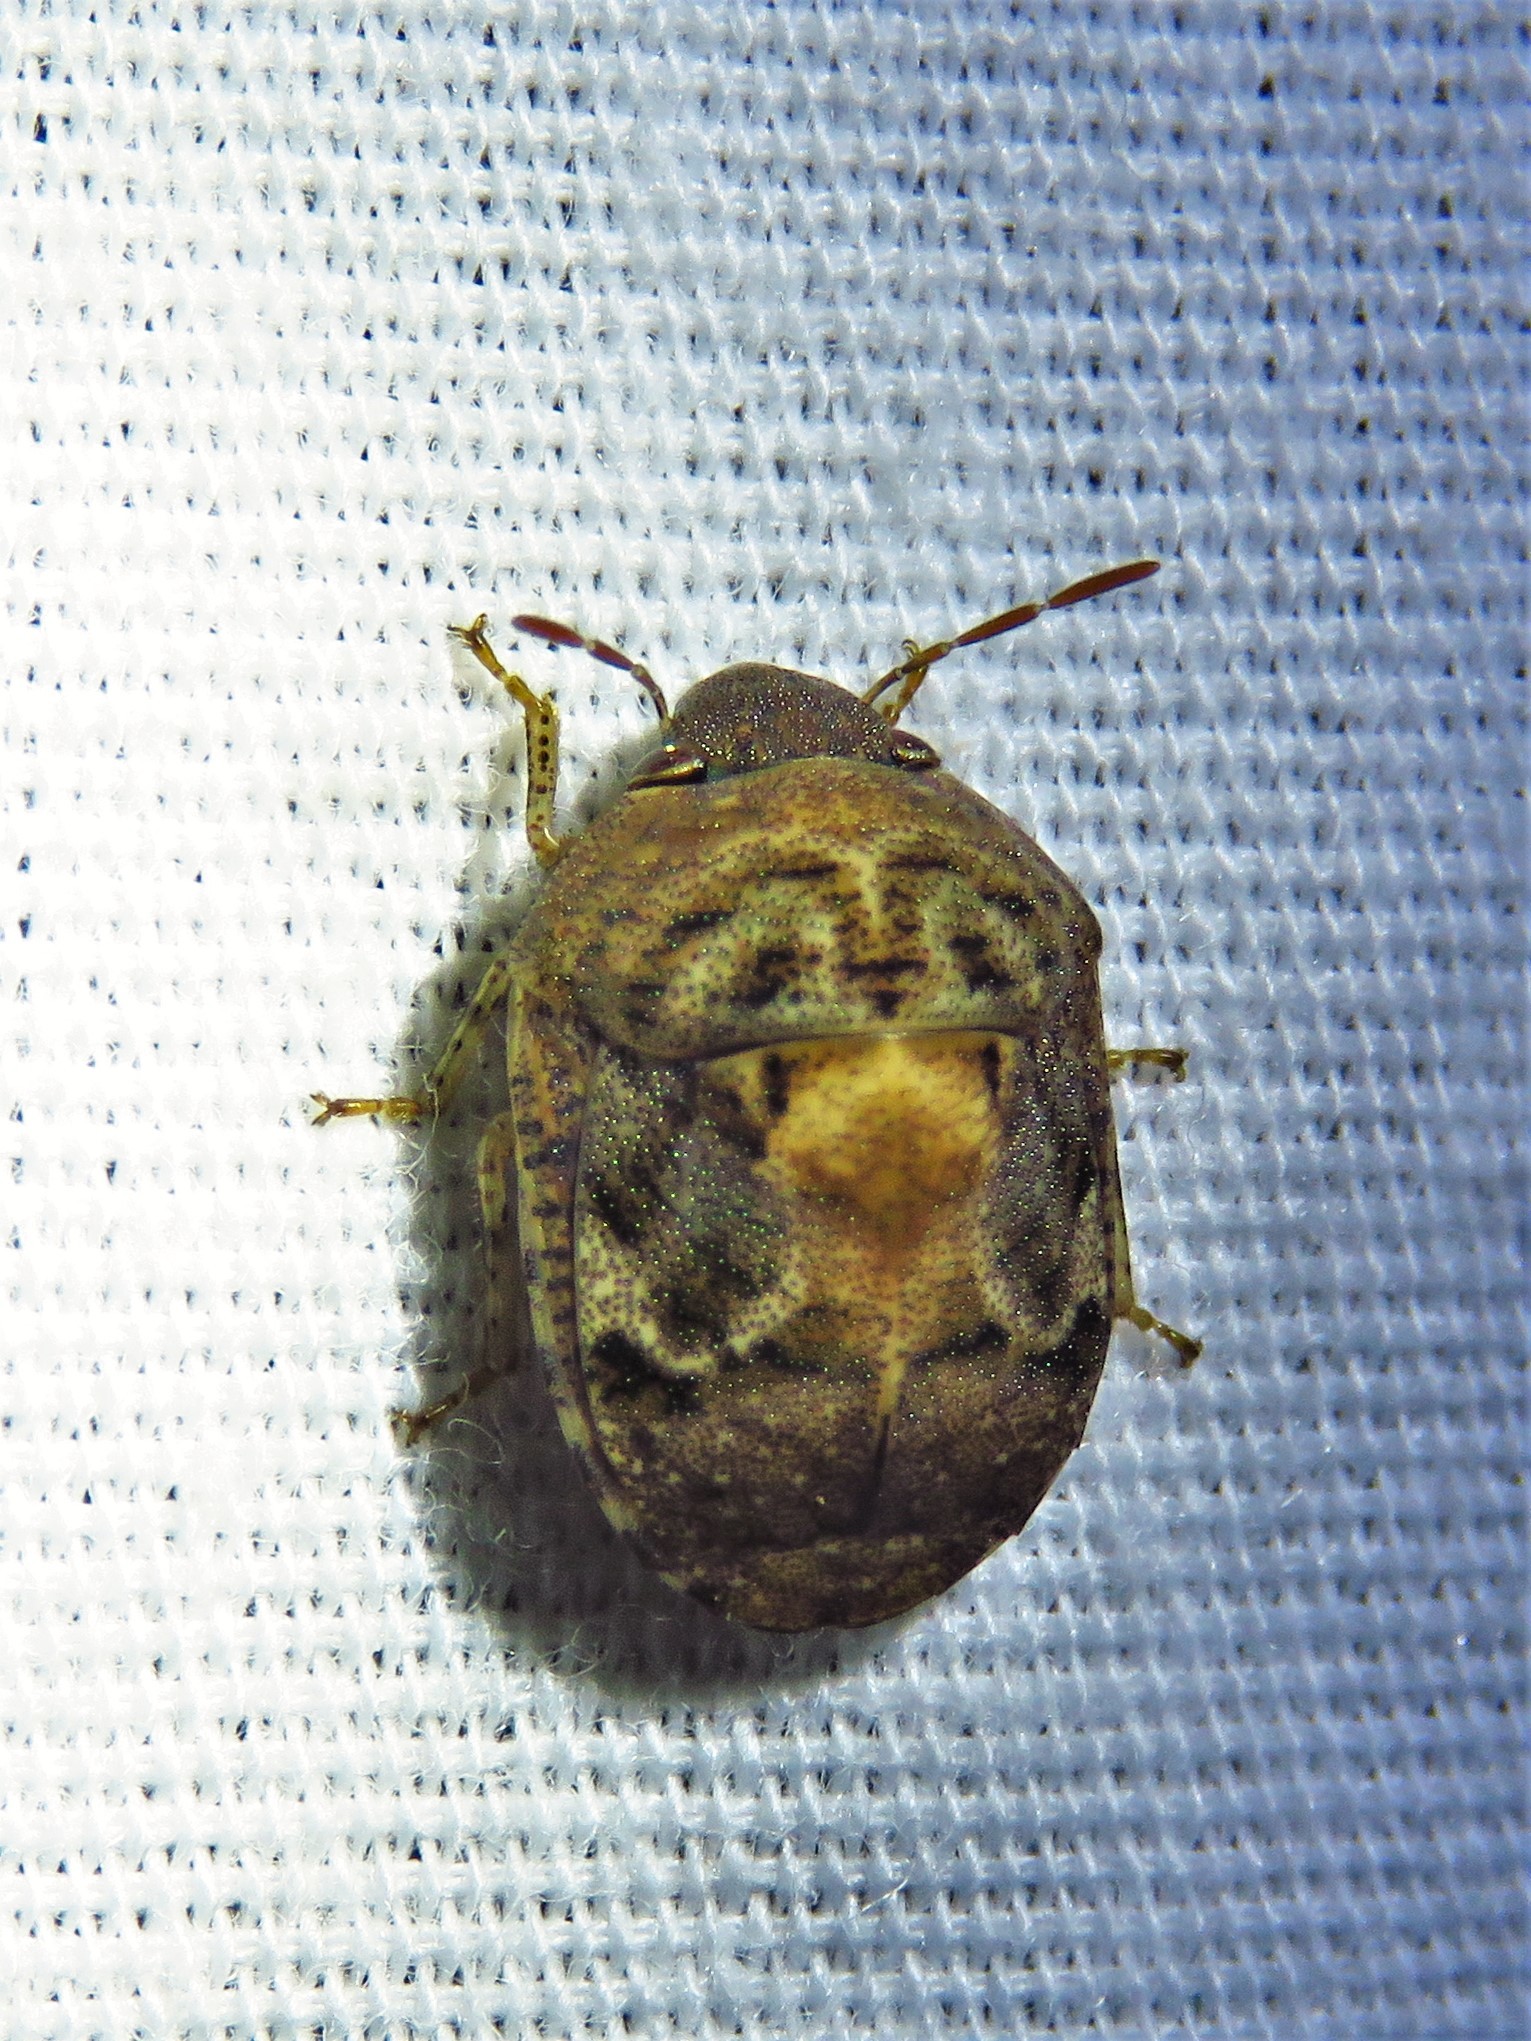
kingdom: Animalia
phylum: Arthropoda
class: Insecta
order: Hemiptera
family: Scutelleridae
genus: Stethaulax
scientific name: Stethaulax marmoratus
